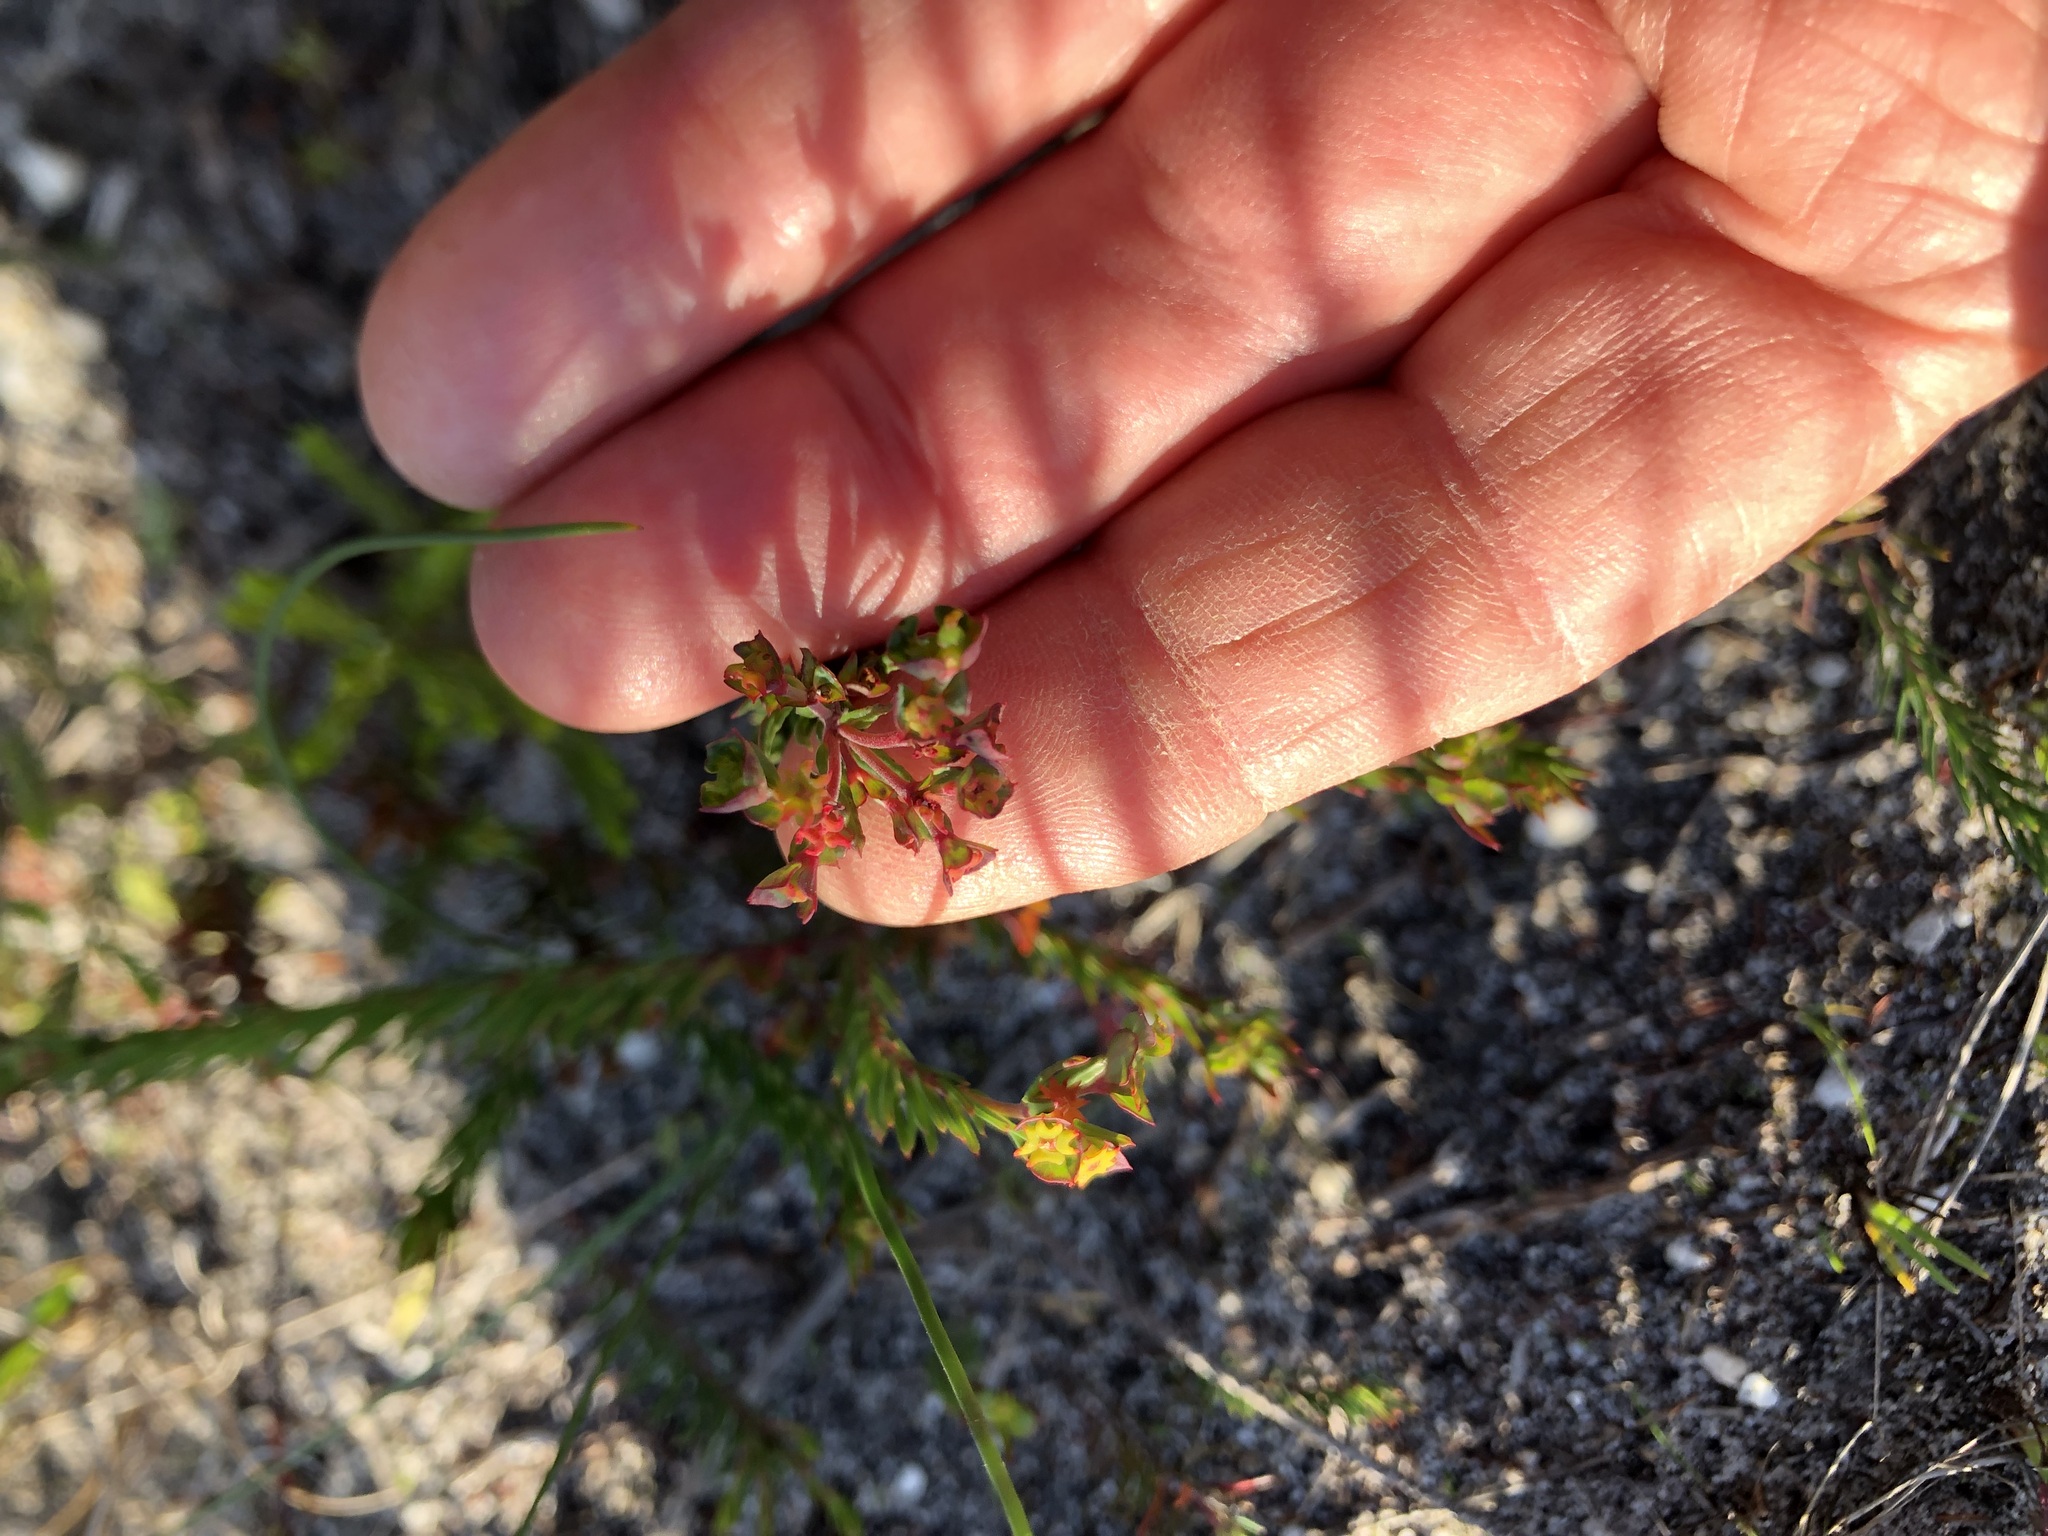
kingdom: Plantae
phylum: Tracheophyta
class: Magnoliopsida
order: Malpighiales
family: Euphorbiaceae
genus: Euphorbia
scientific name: Euphorbia genistoides
